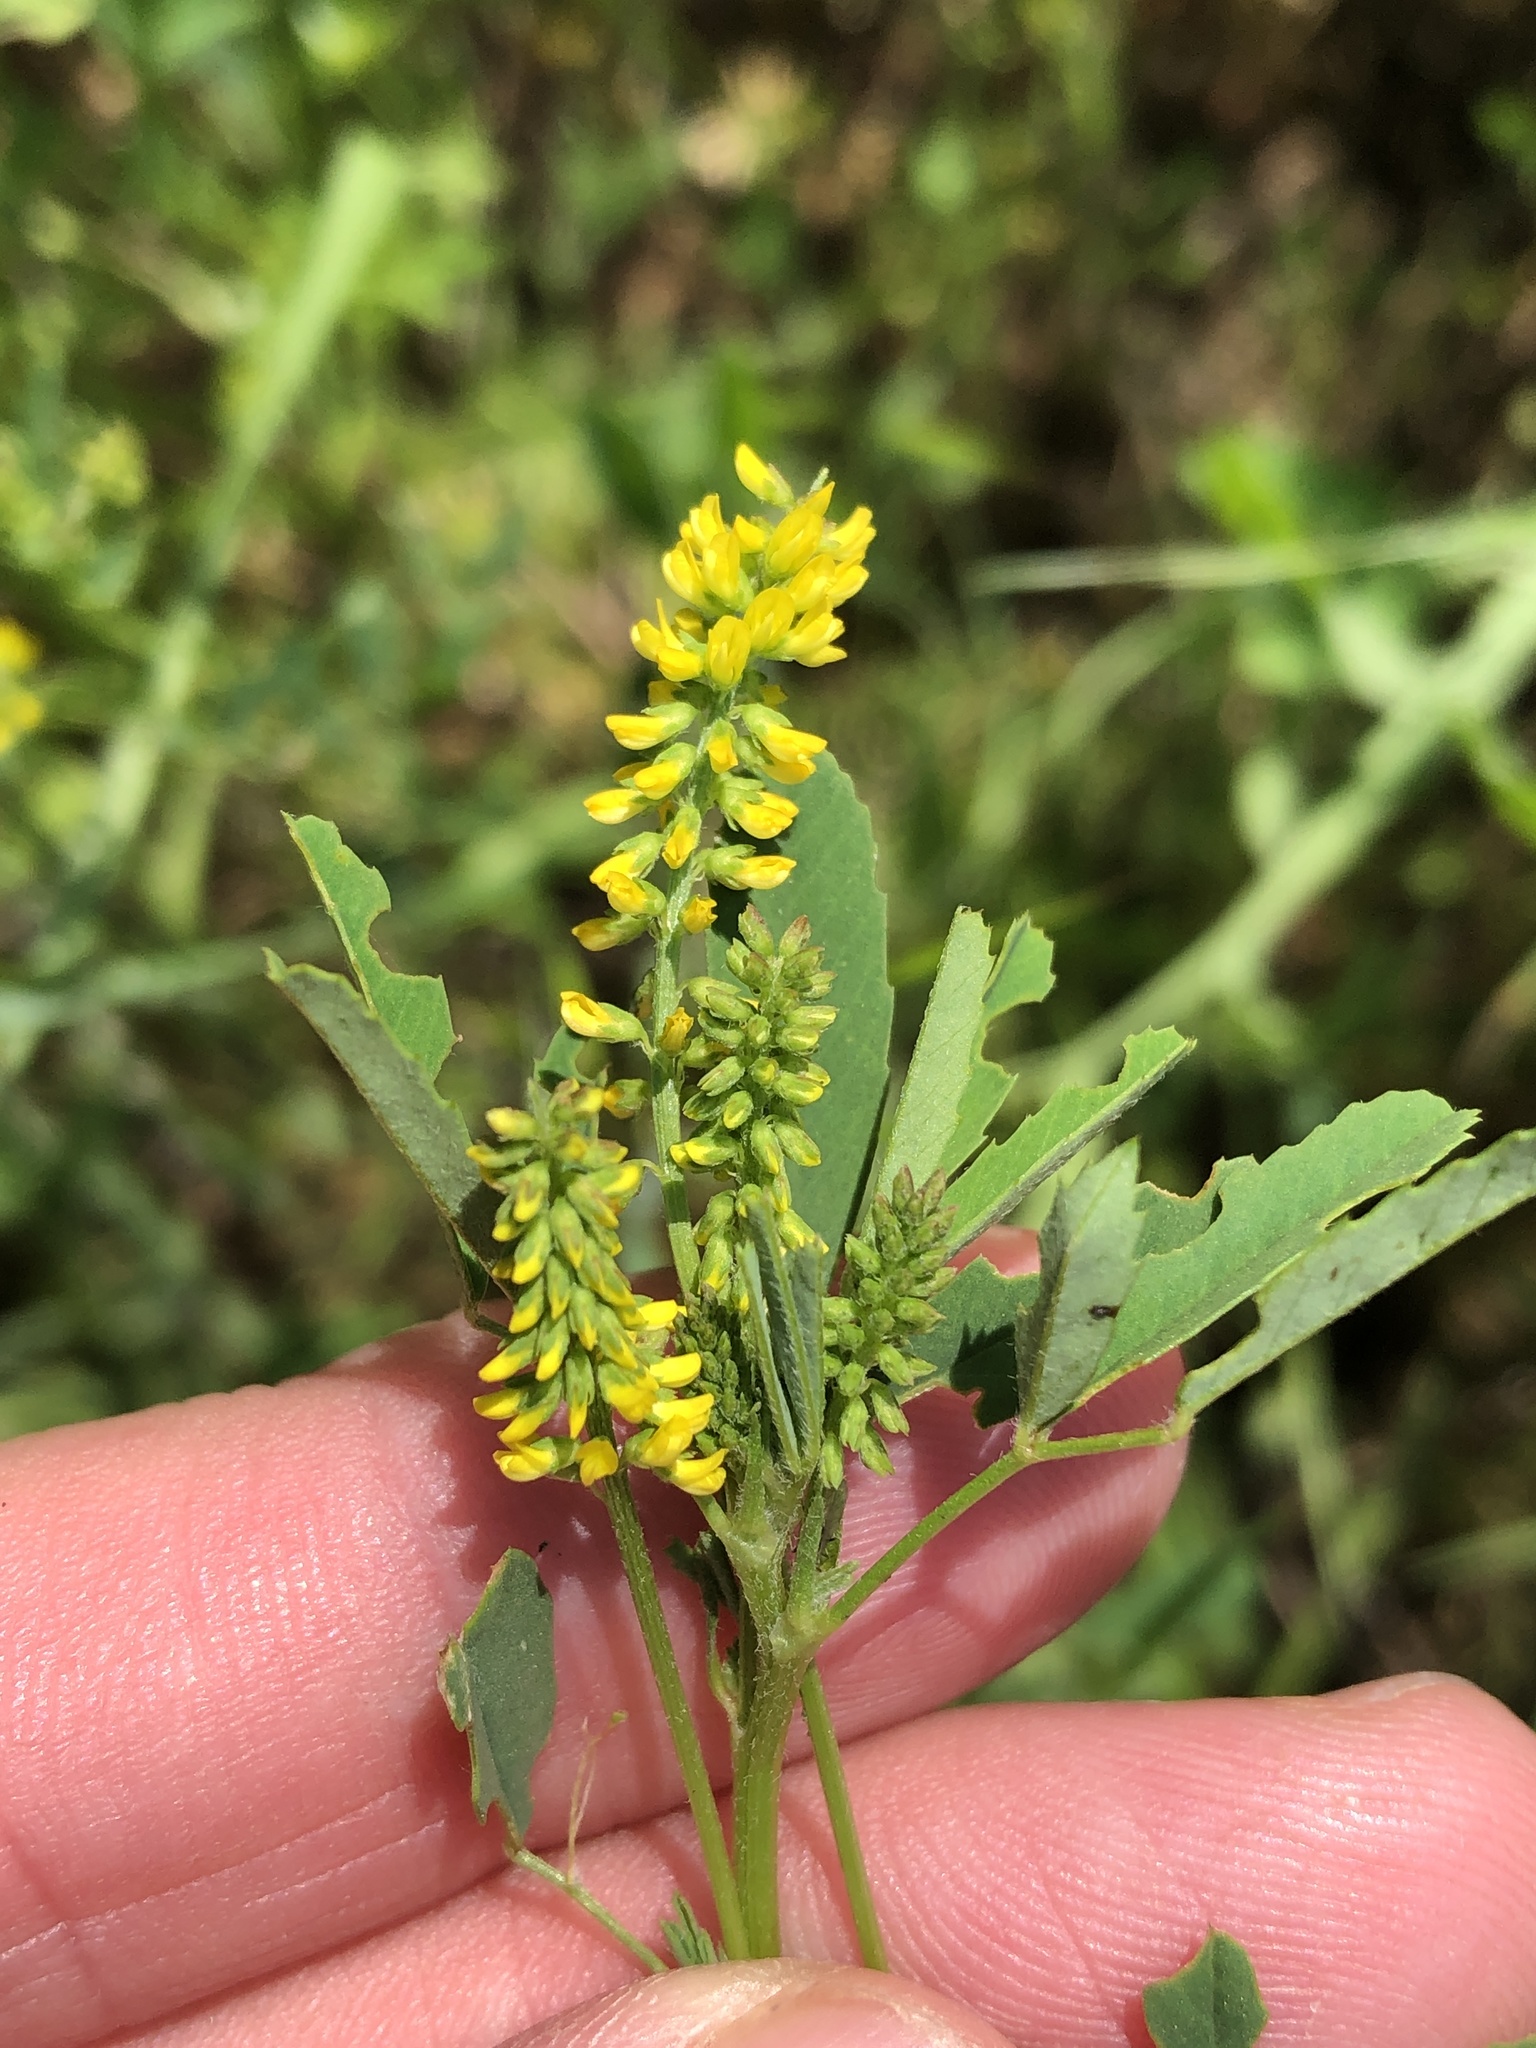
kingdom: Plantae
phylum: Tracheophyta
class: Magnoliopsida
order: Fabales
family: Fabaceae
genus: Melilotus
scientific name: Melilotus indicus
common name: Small melilot
